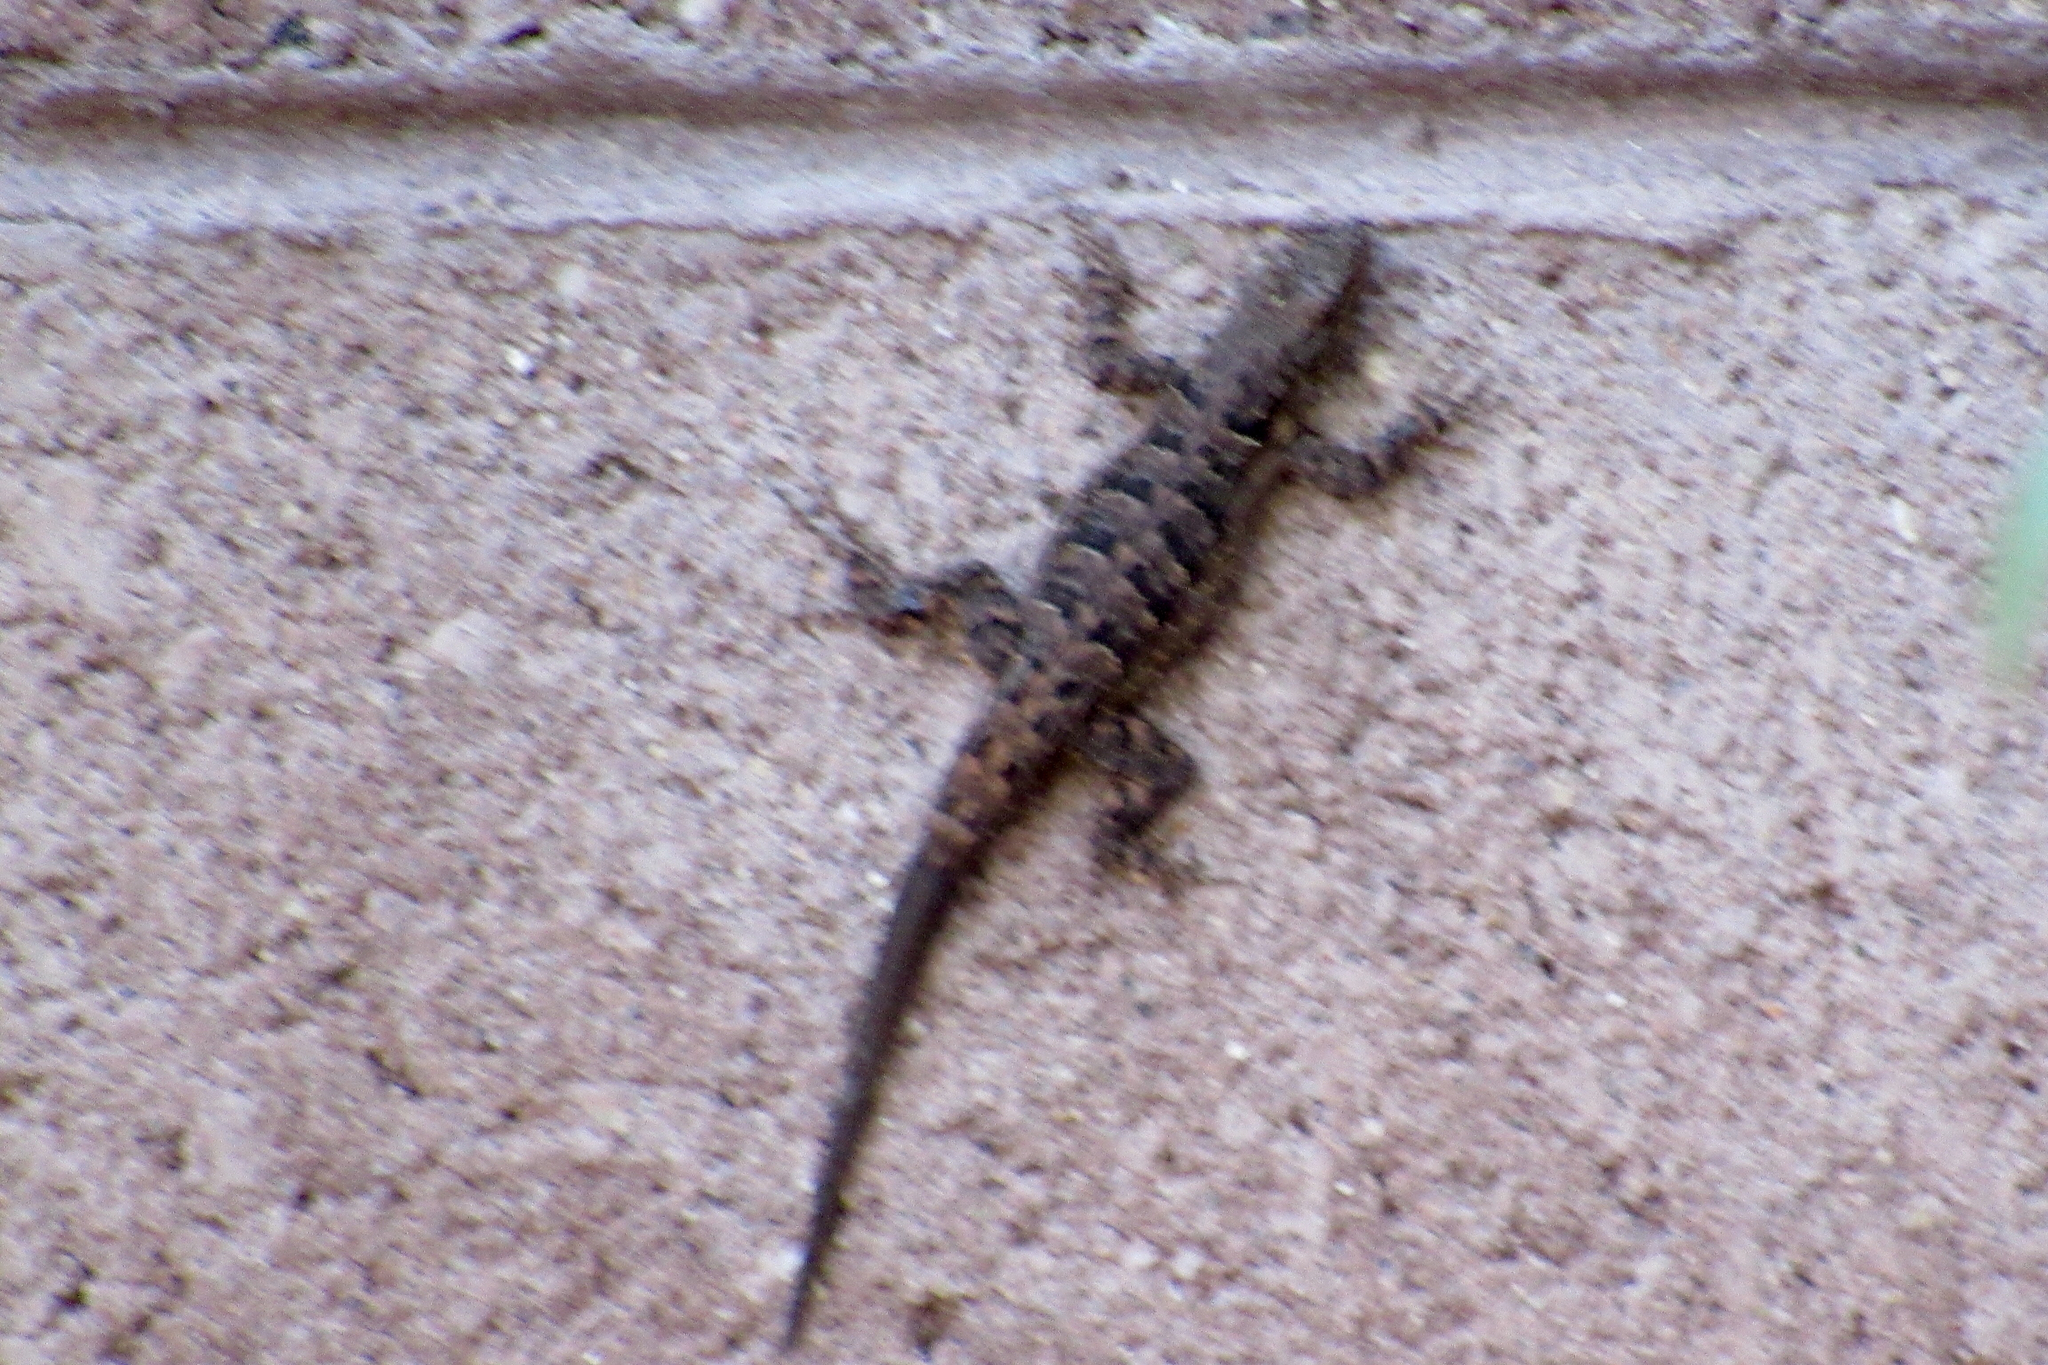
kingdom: Animalia
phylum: Chordata
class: Squamata
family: Phrynosomatidae
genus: Urosaurus
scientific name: Urosaurus ornatus
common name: Ornate tree lizard
